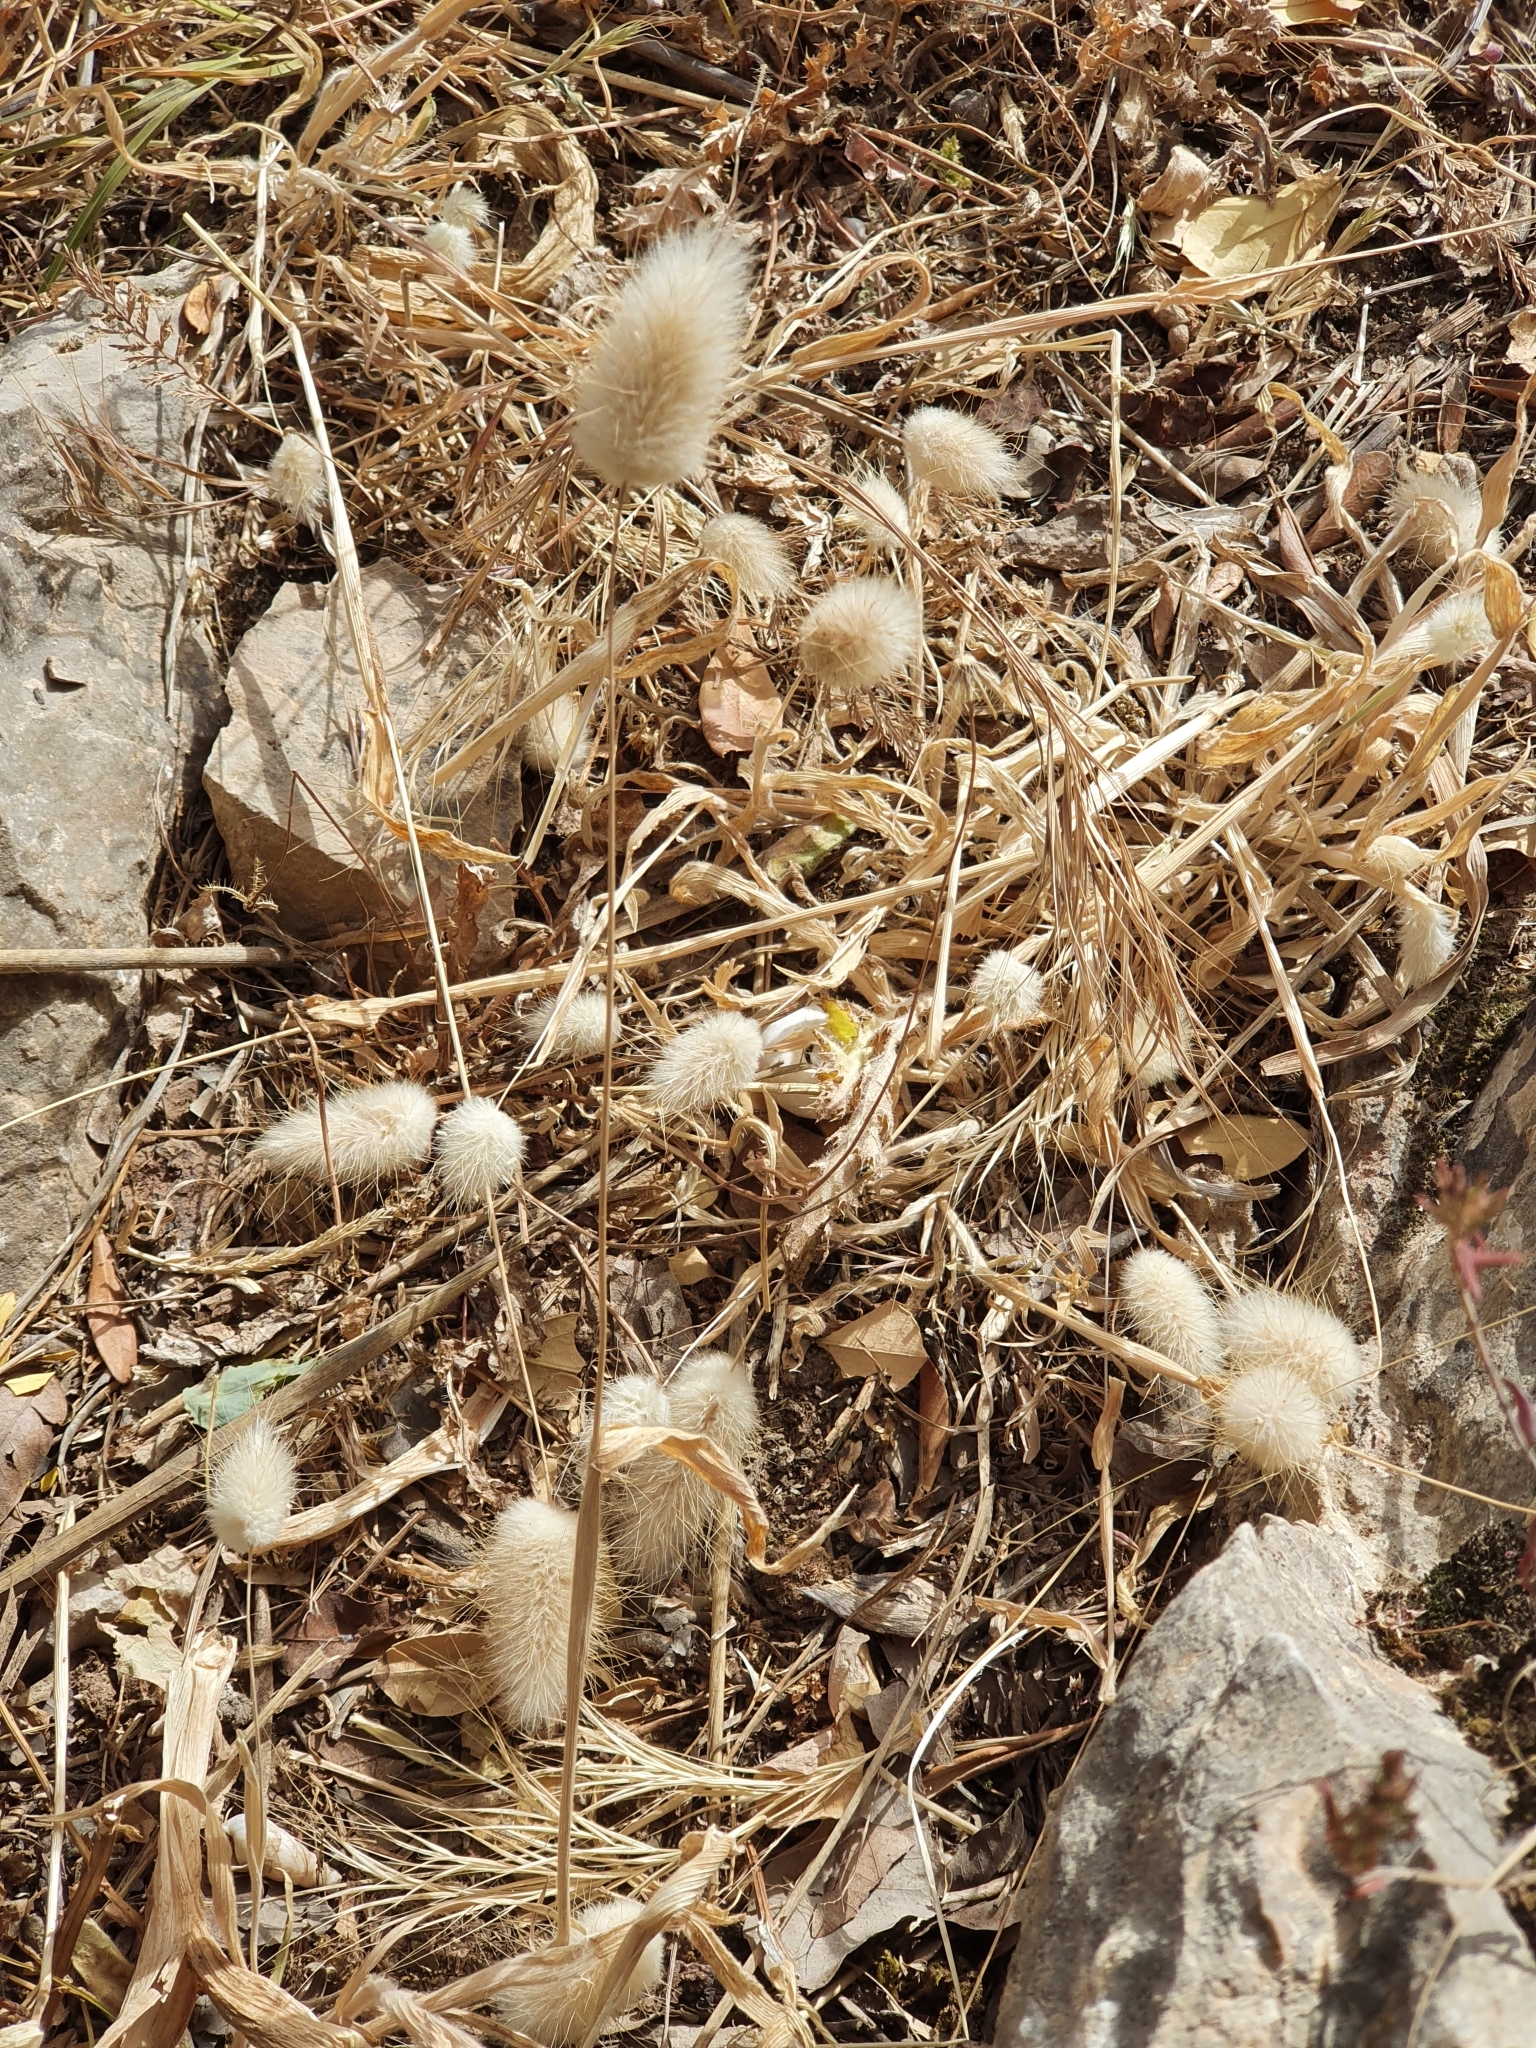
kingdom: Plantae
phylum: Tracheophyta
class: Liliopsida
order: Poales
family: Poaceae
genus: Lagurus
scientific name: Lagurus ovatus
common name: Hare's-tail
